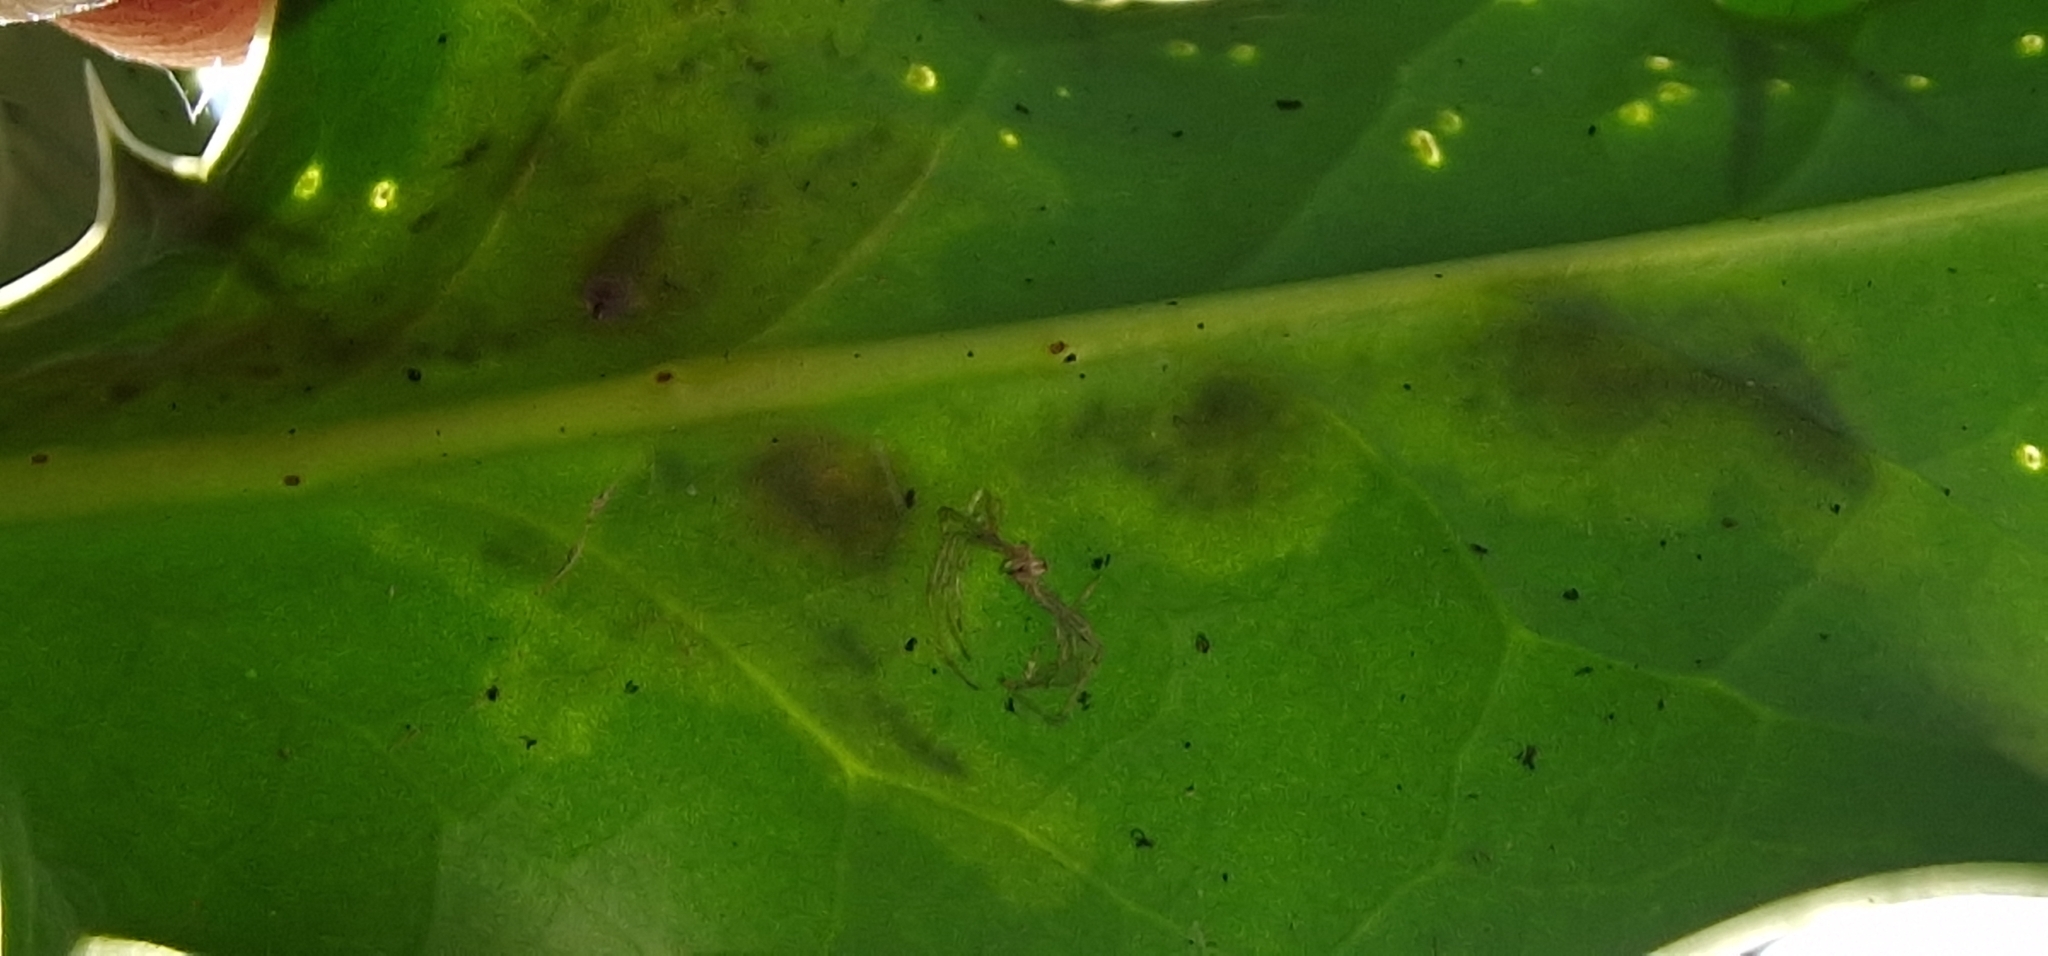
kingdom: Animalia
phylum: Arthropoda
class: Insecta
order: Diptera
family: Agromyzidae
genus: Phytomyza
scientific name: Phytomyza ilicis
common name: Holly leafminer
